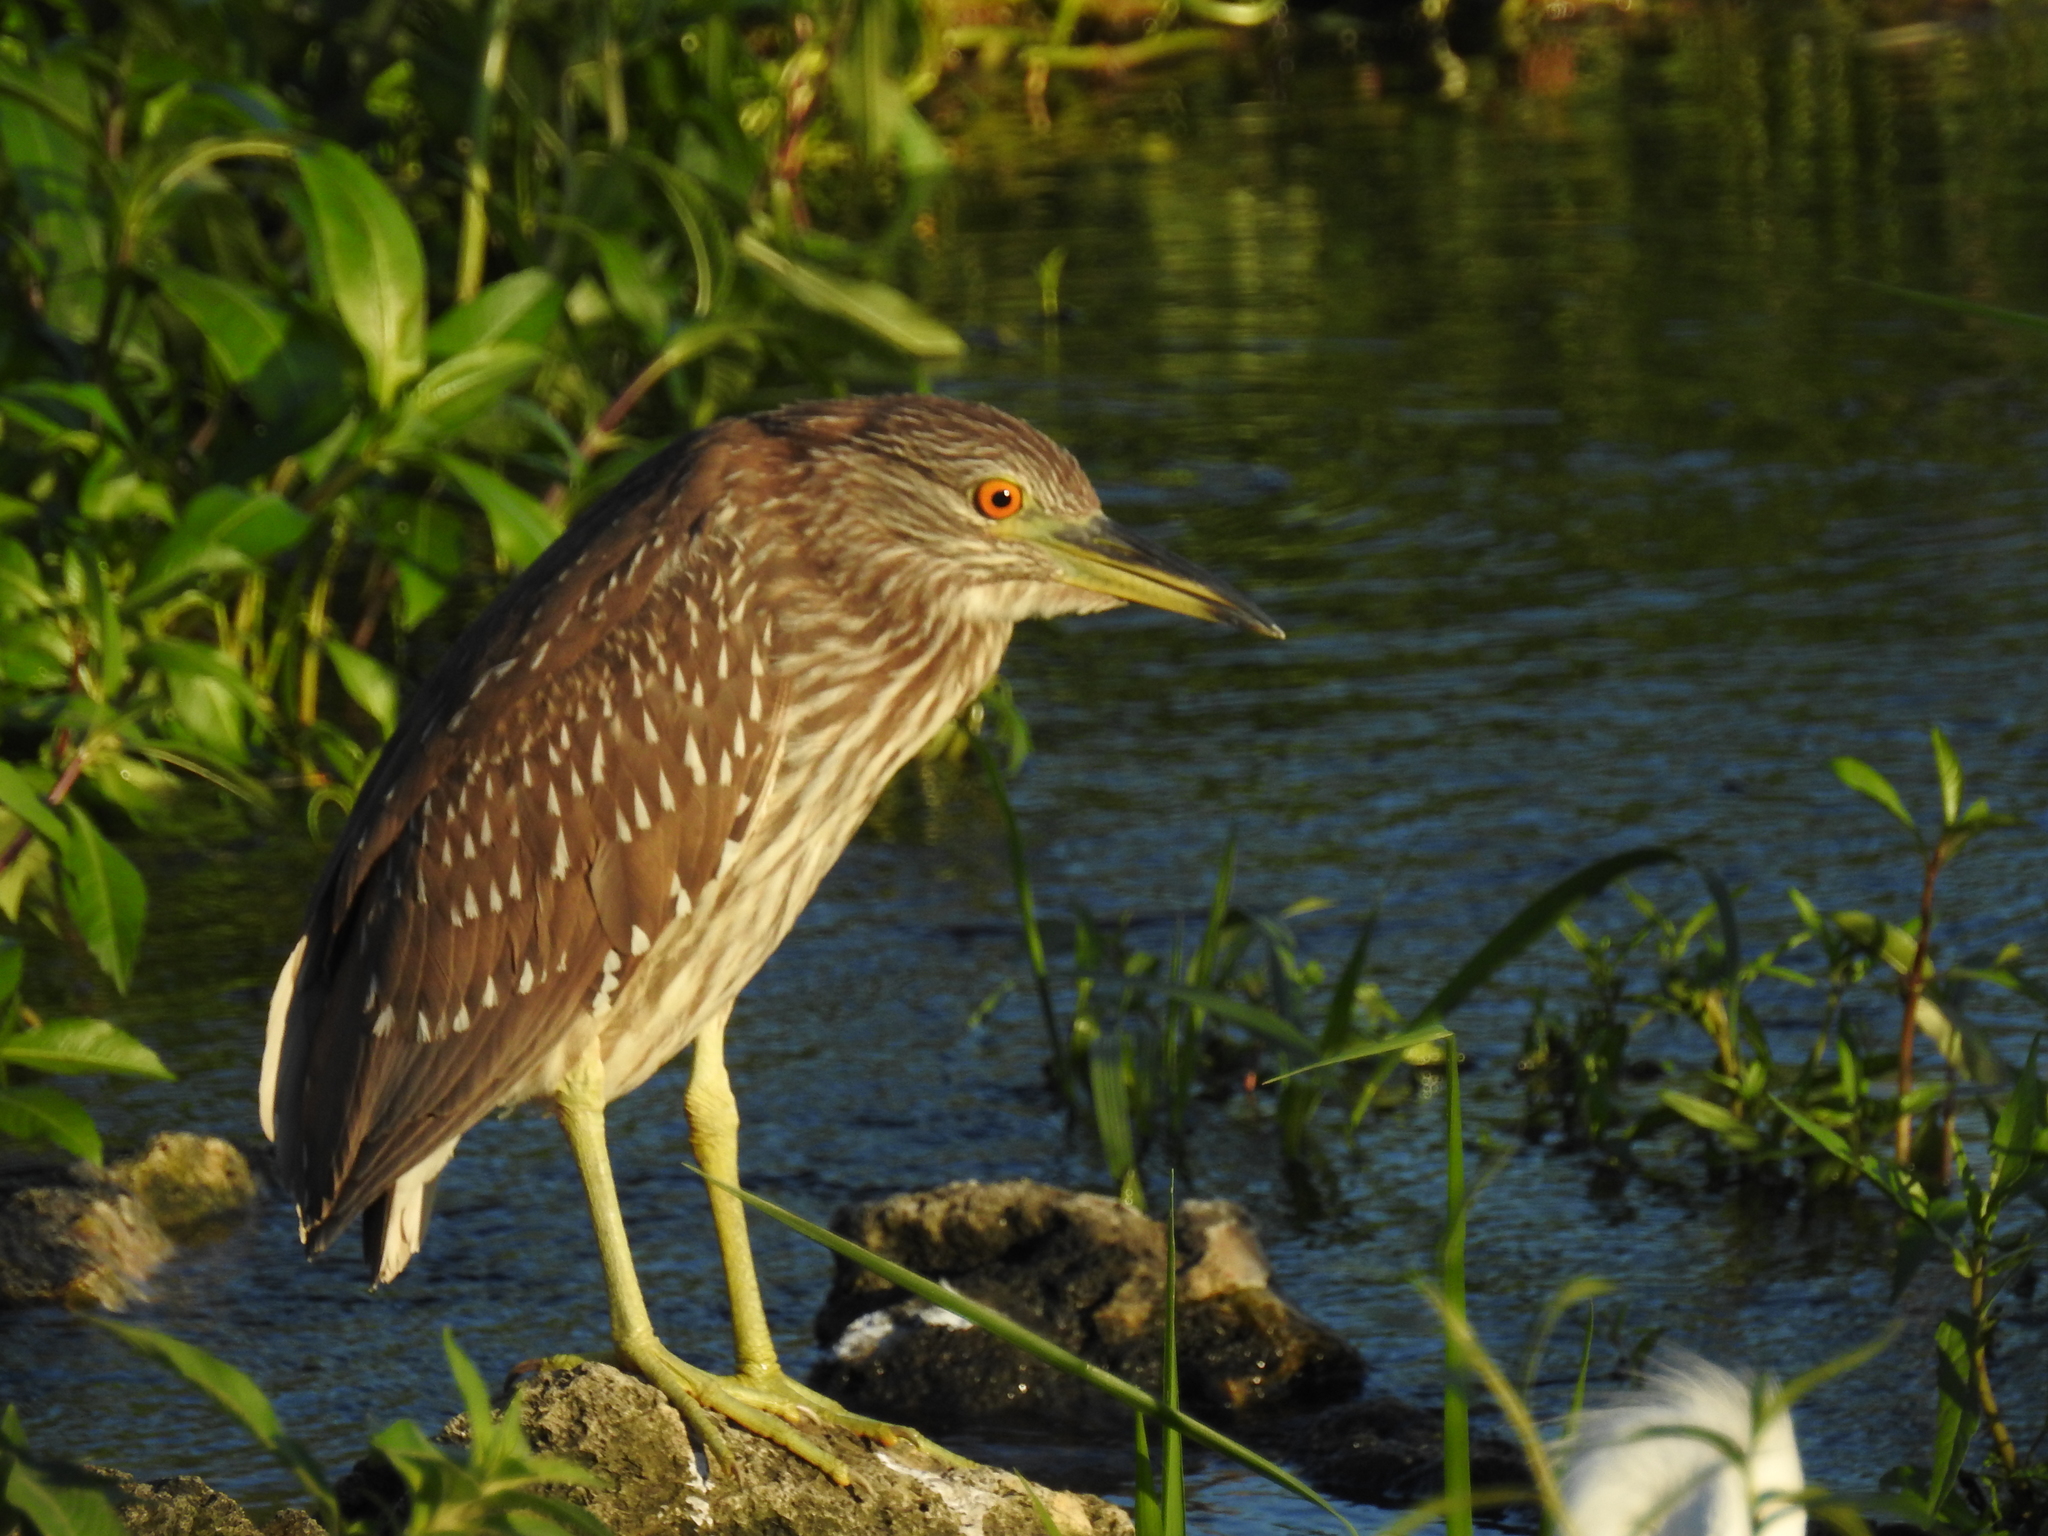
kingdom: Animalia
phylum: Chordata
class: Aves
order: Pelecaniformes
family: Ardeidae
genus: Nycticorax
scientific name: Nycticorax nycticorax
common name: Black-crowned night heron
